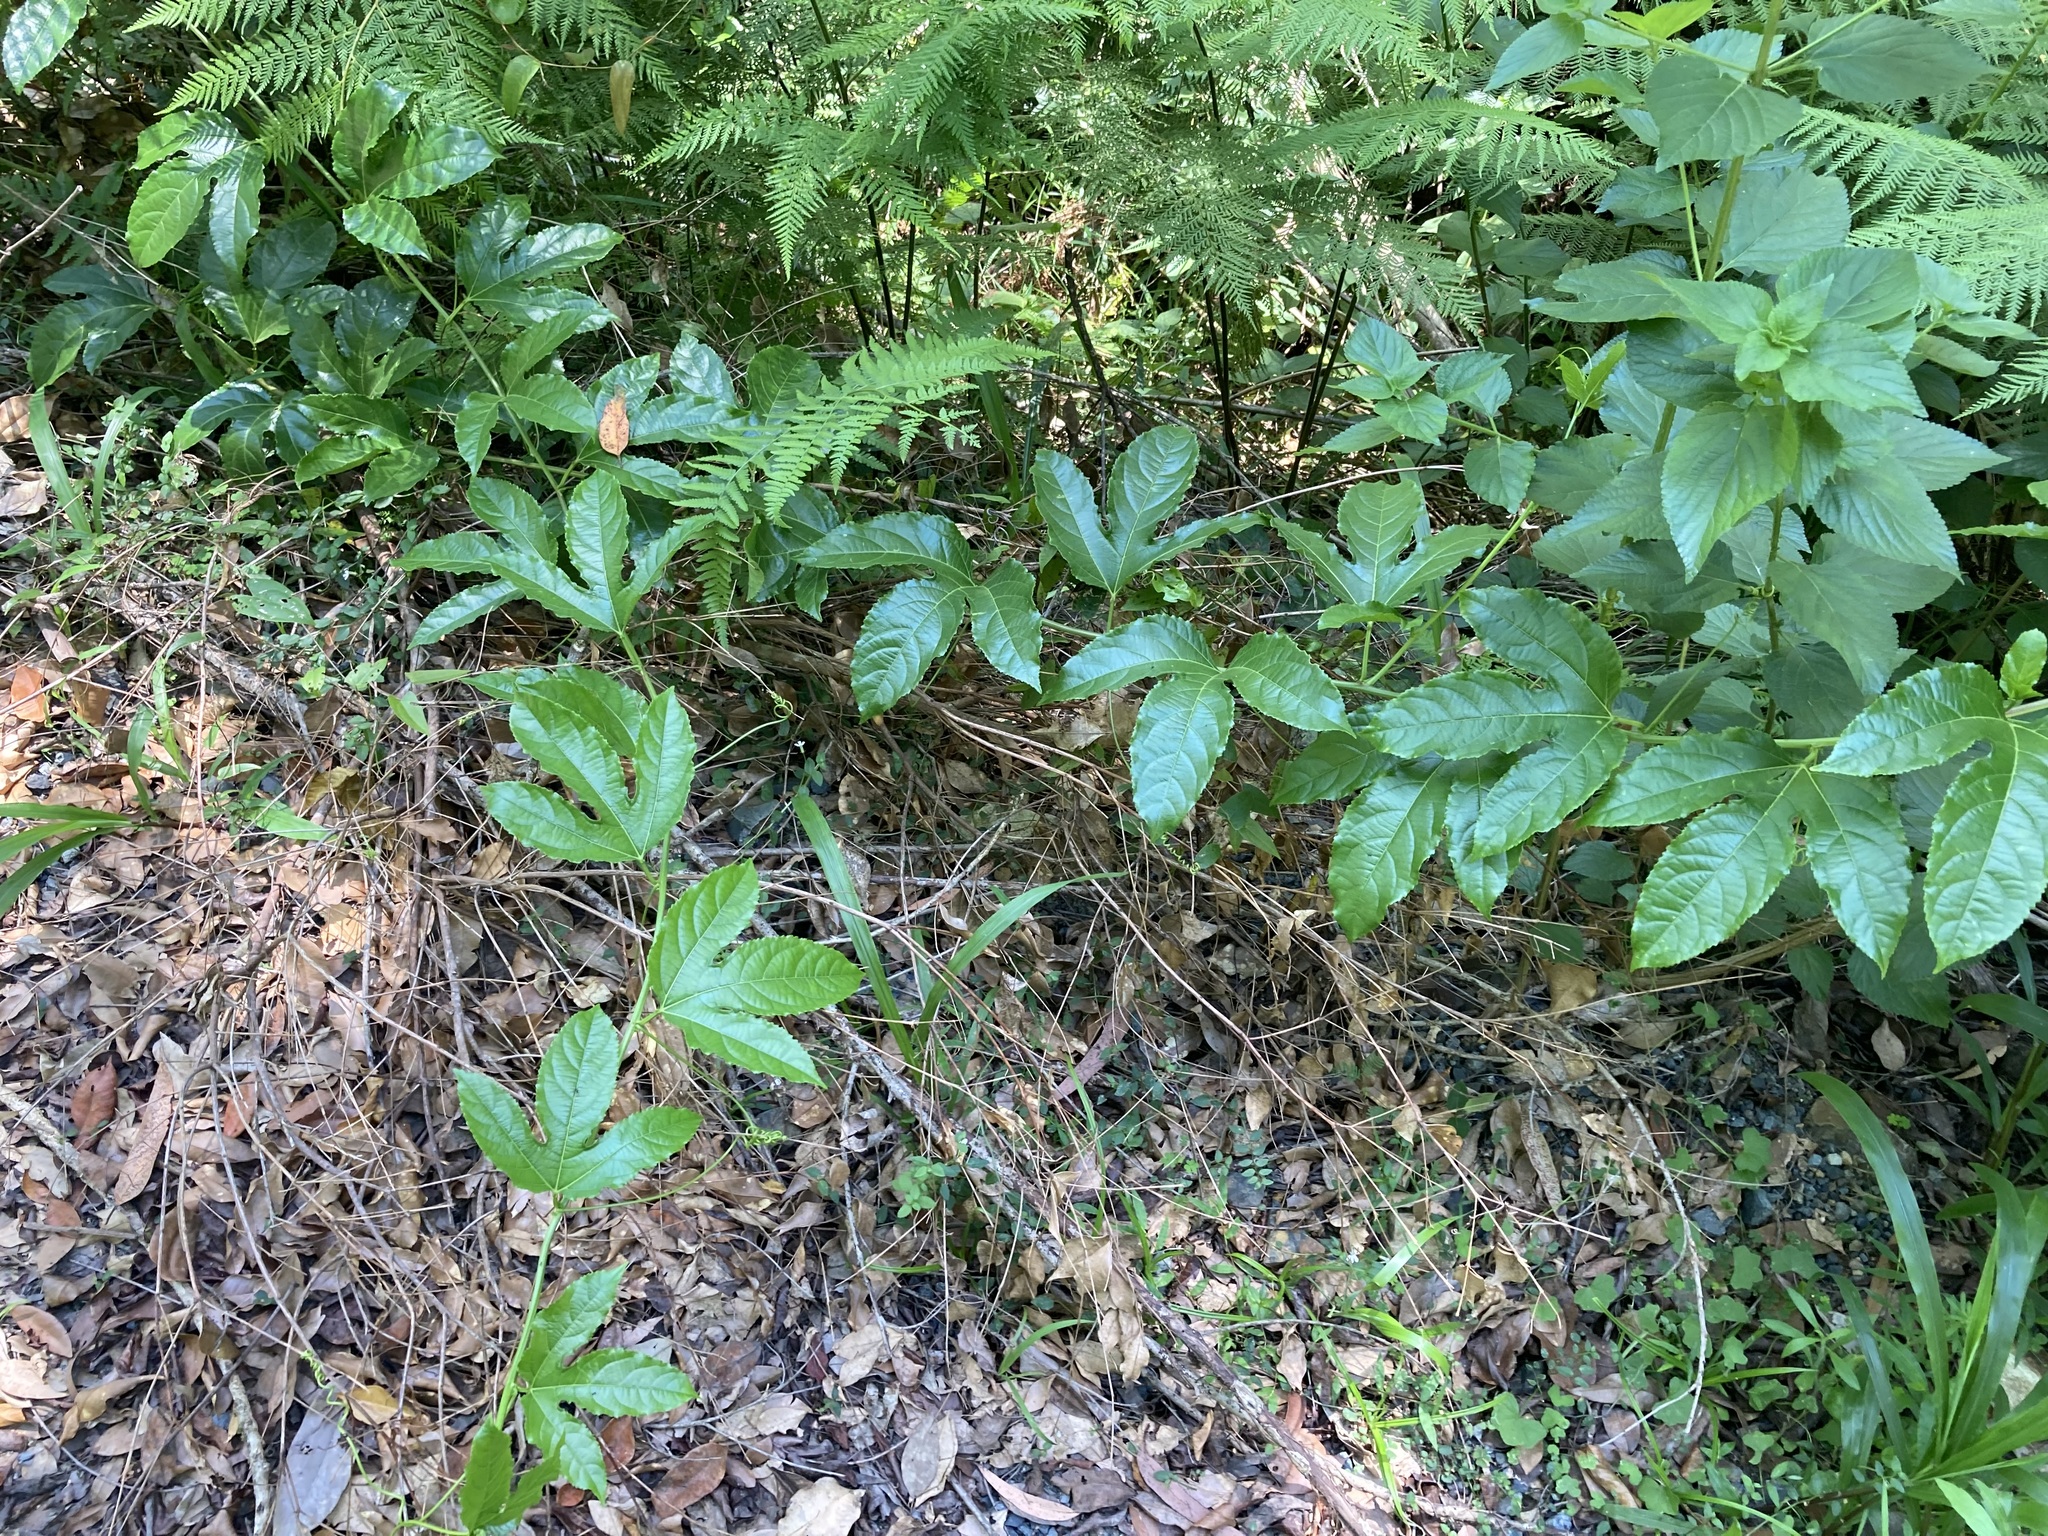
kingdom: Plantae
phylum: Tracheophyta
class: Magnoliopsida
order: Malpighiales
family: Passifloraceae
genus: Passiflora
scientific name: Passiflora edulis
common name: Purple granadilla
